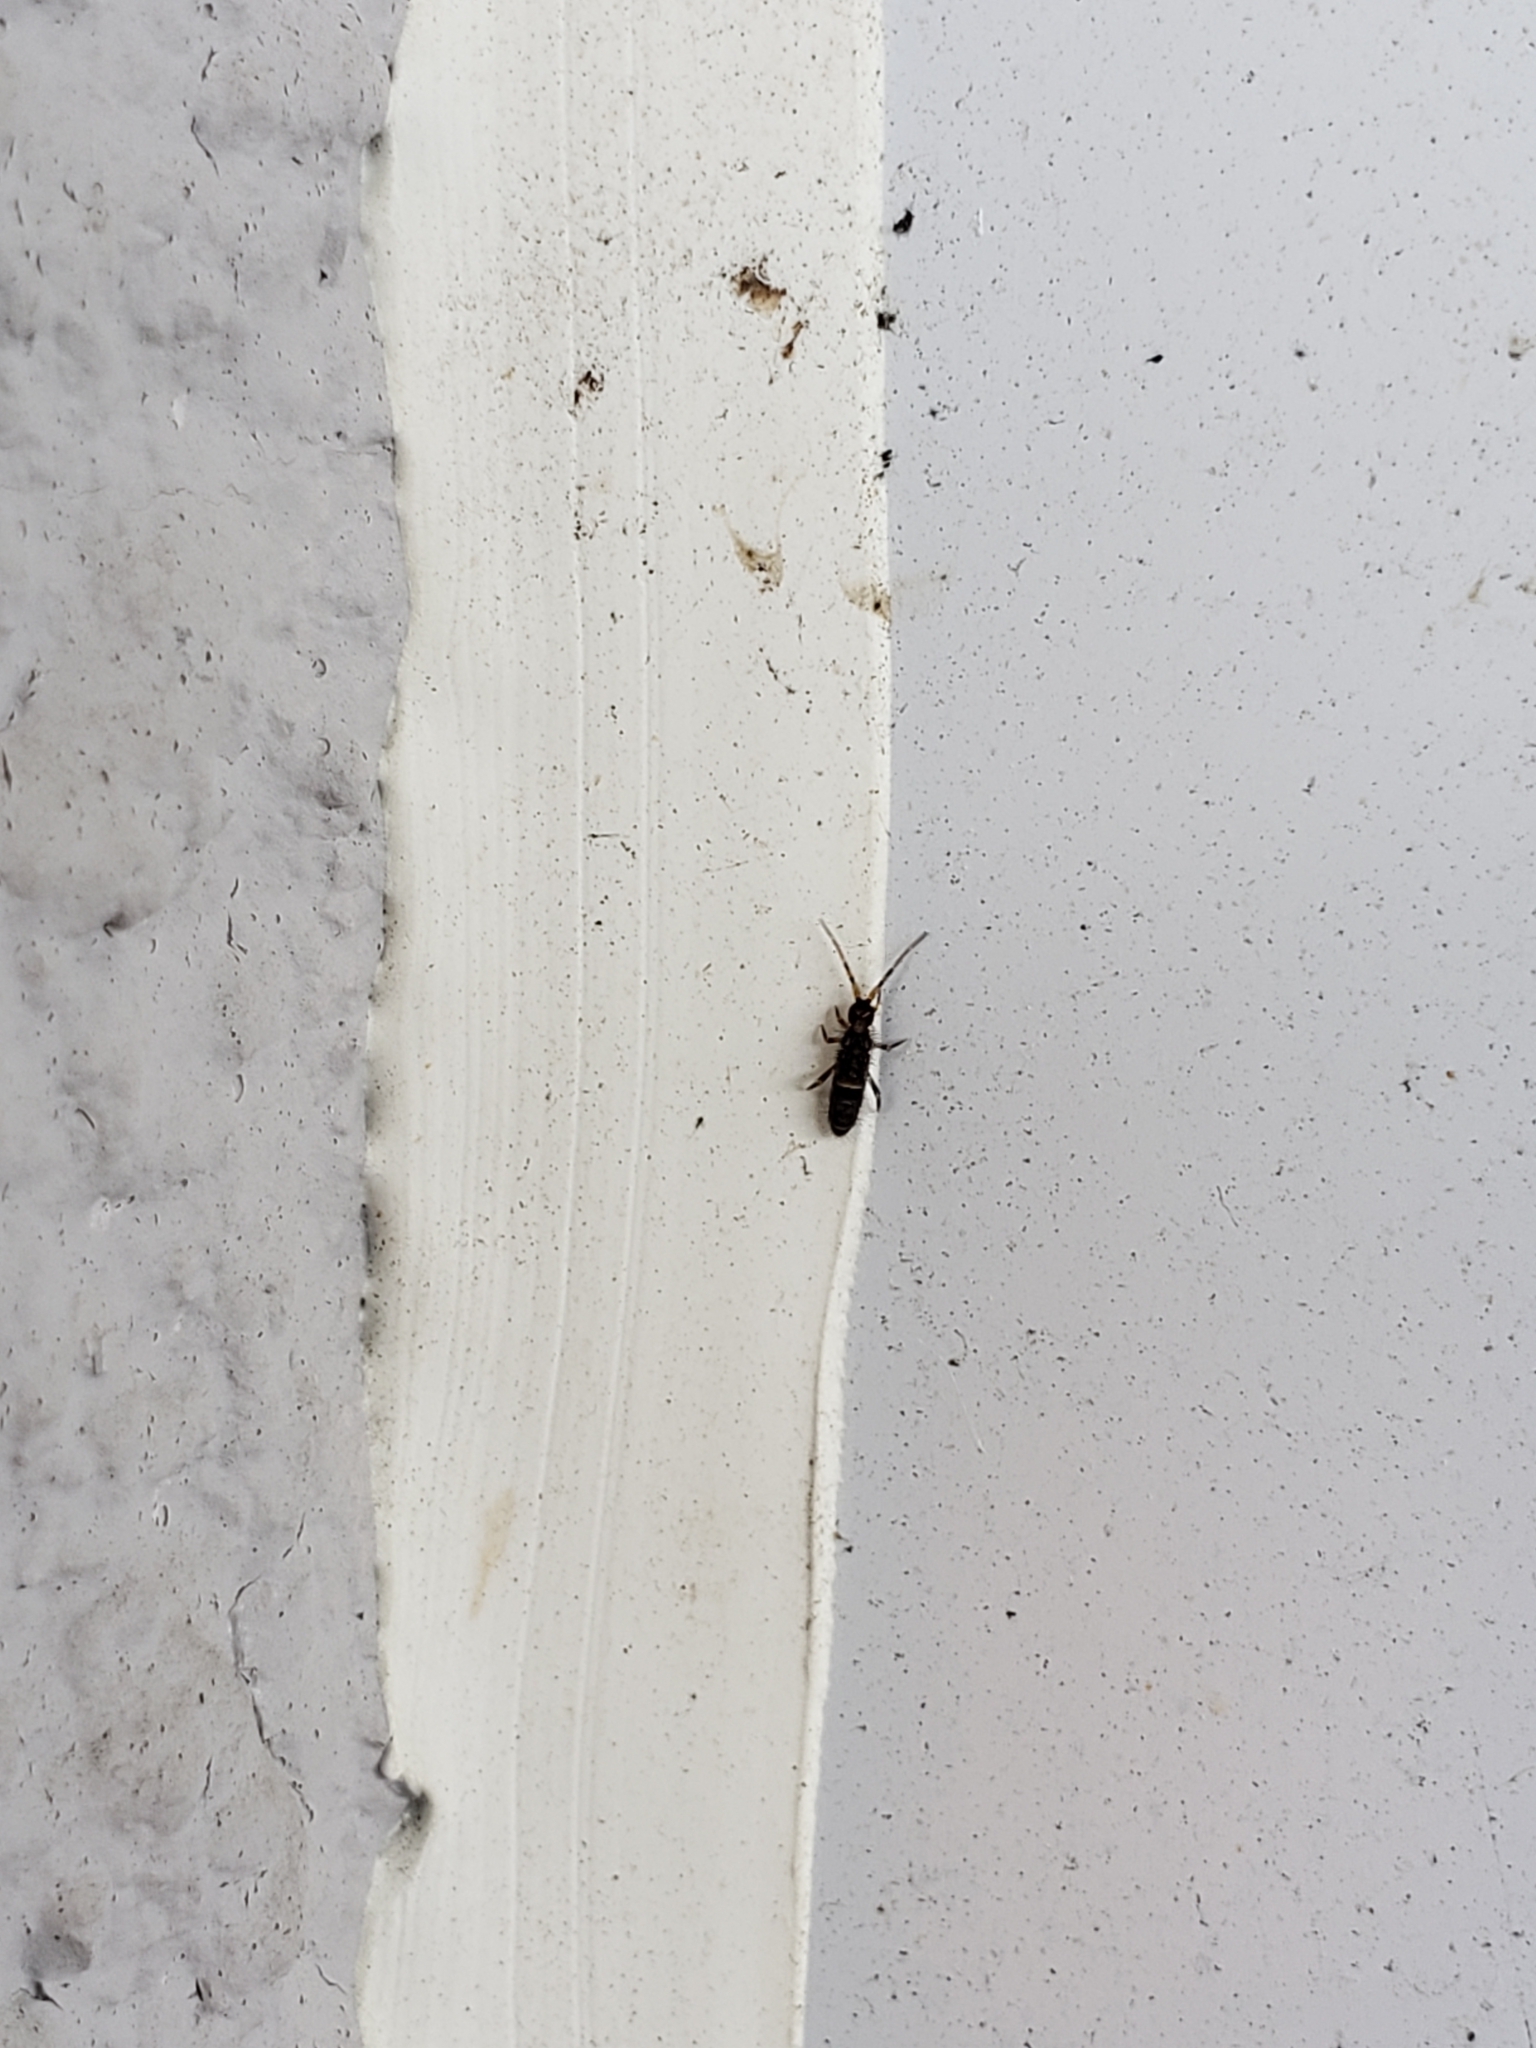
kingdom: Animalia
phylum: Arthropoda
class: Collembola
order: Entomobryomorpha
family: Orchesellidae
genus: Orchesella
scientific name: Orchesella cincta
